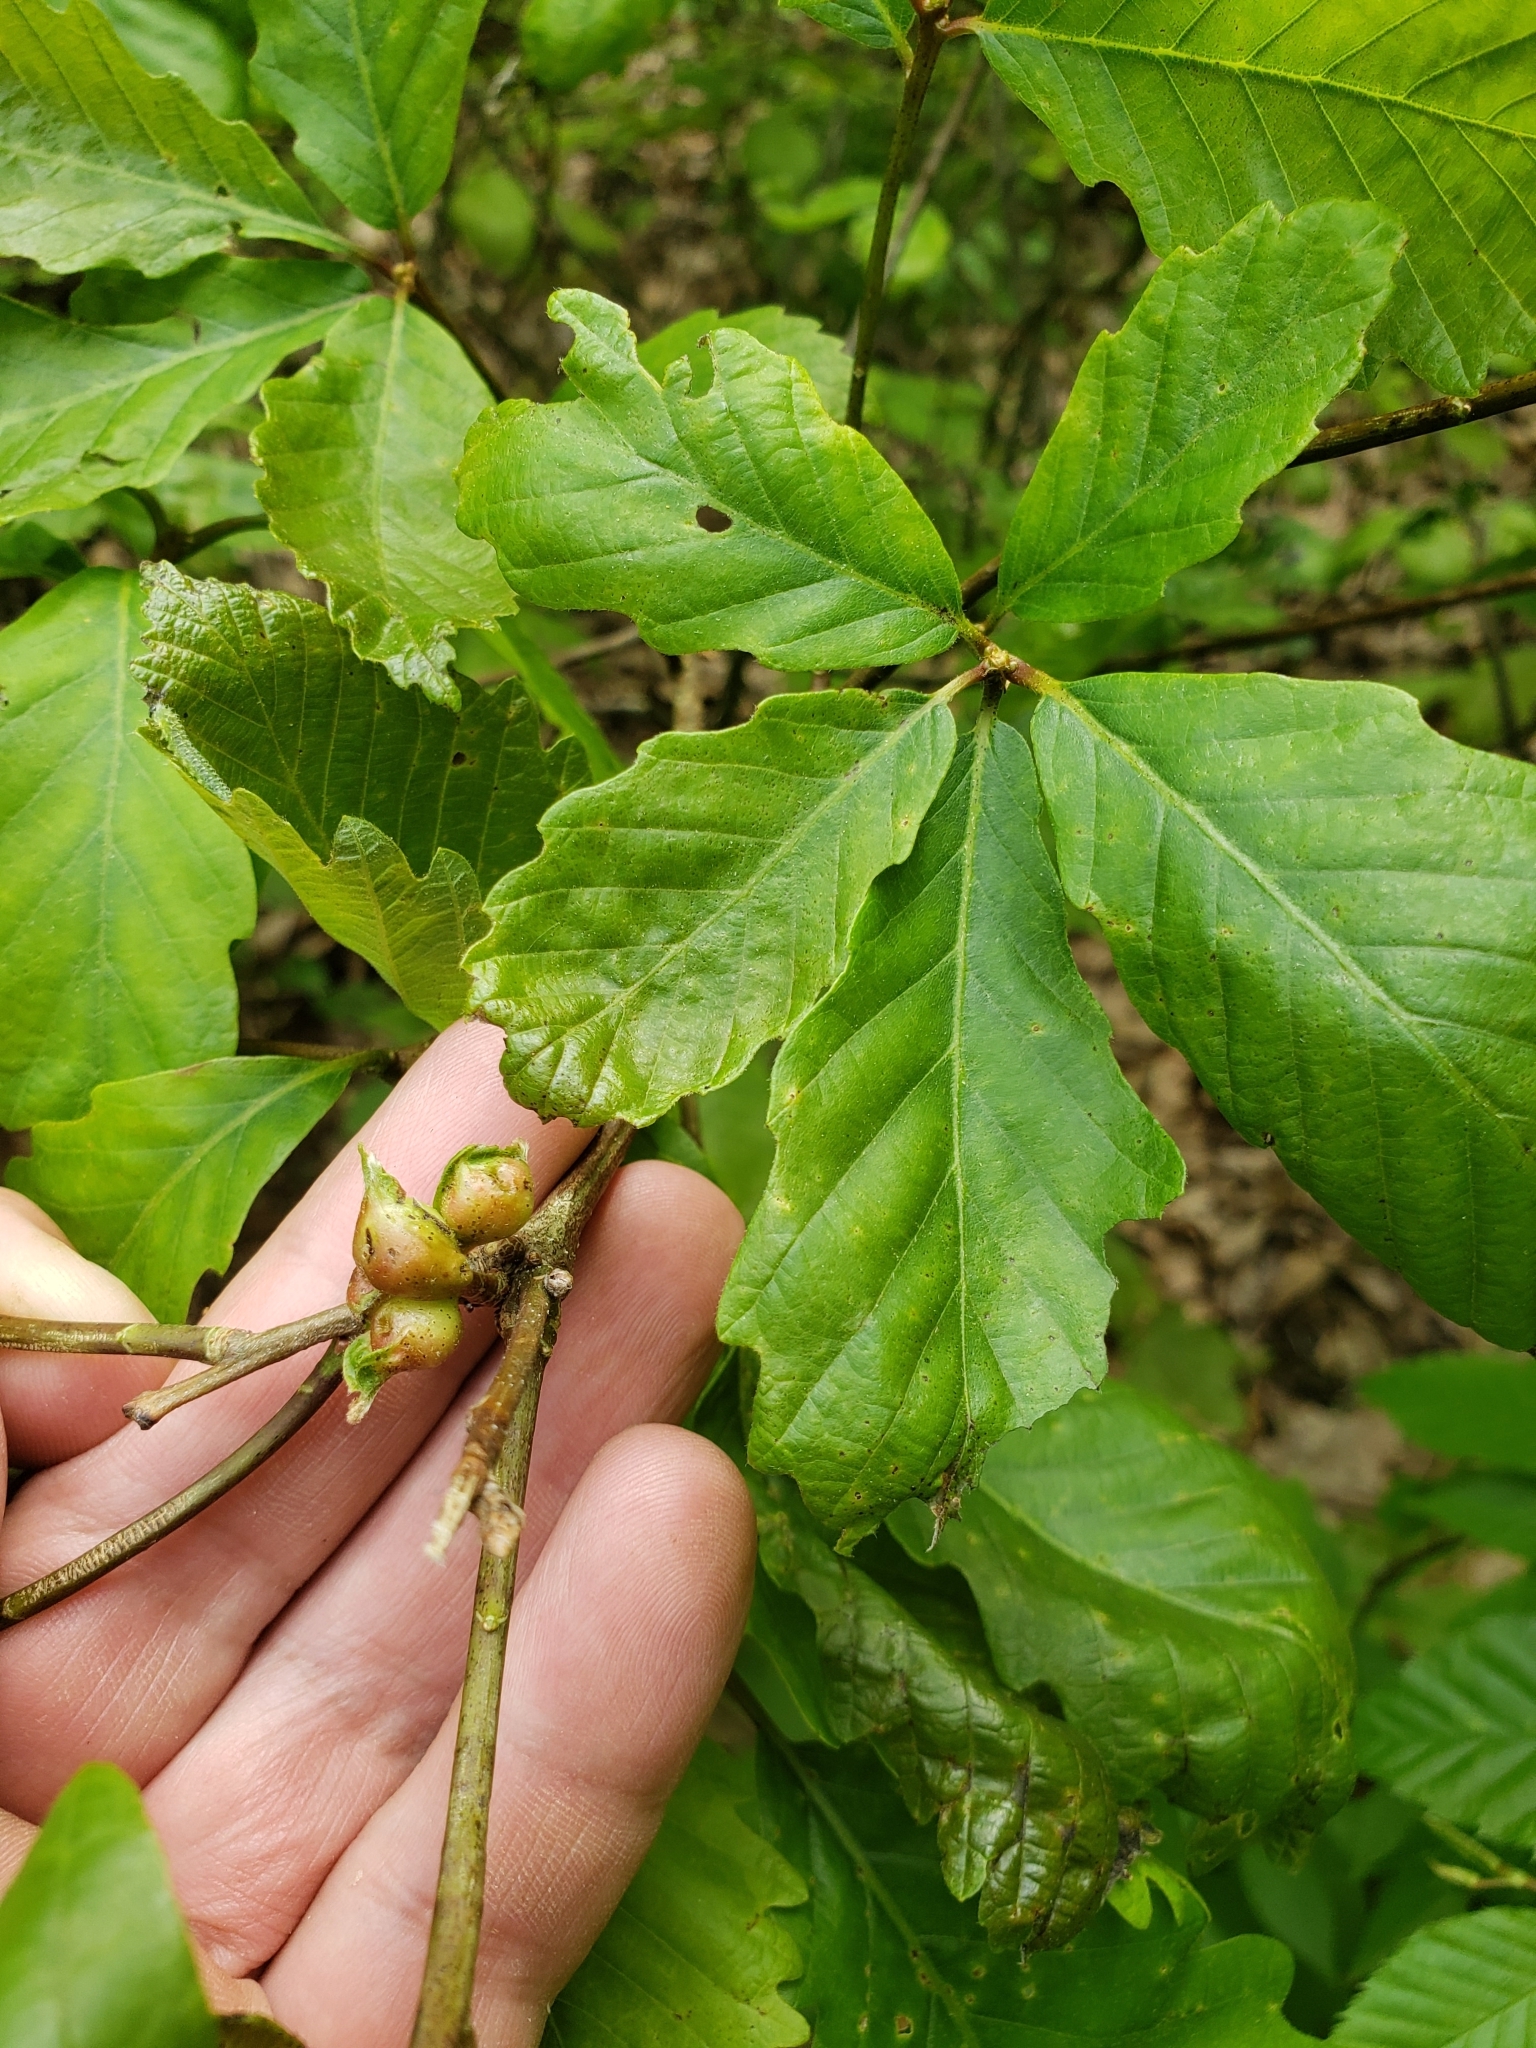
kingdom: Animalia
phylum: Arthropoda
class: Insecta
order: Hymenoptera
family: Cynipidae
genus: Andricus
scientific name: Andricus
